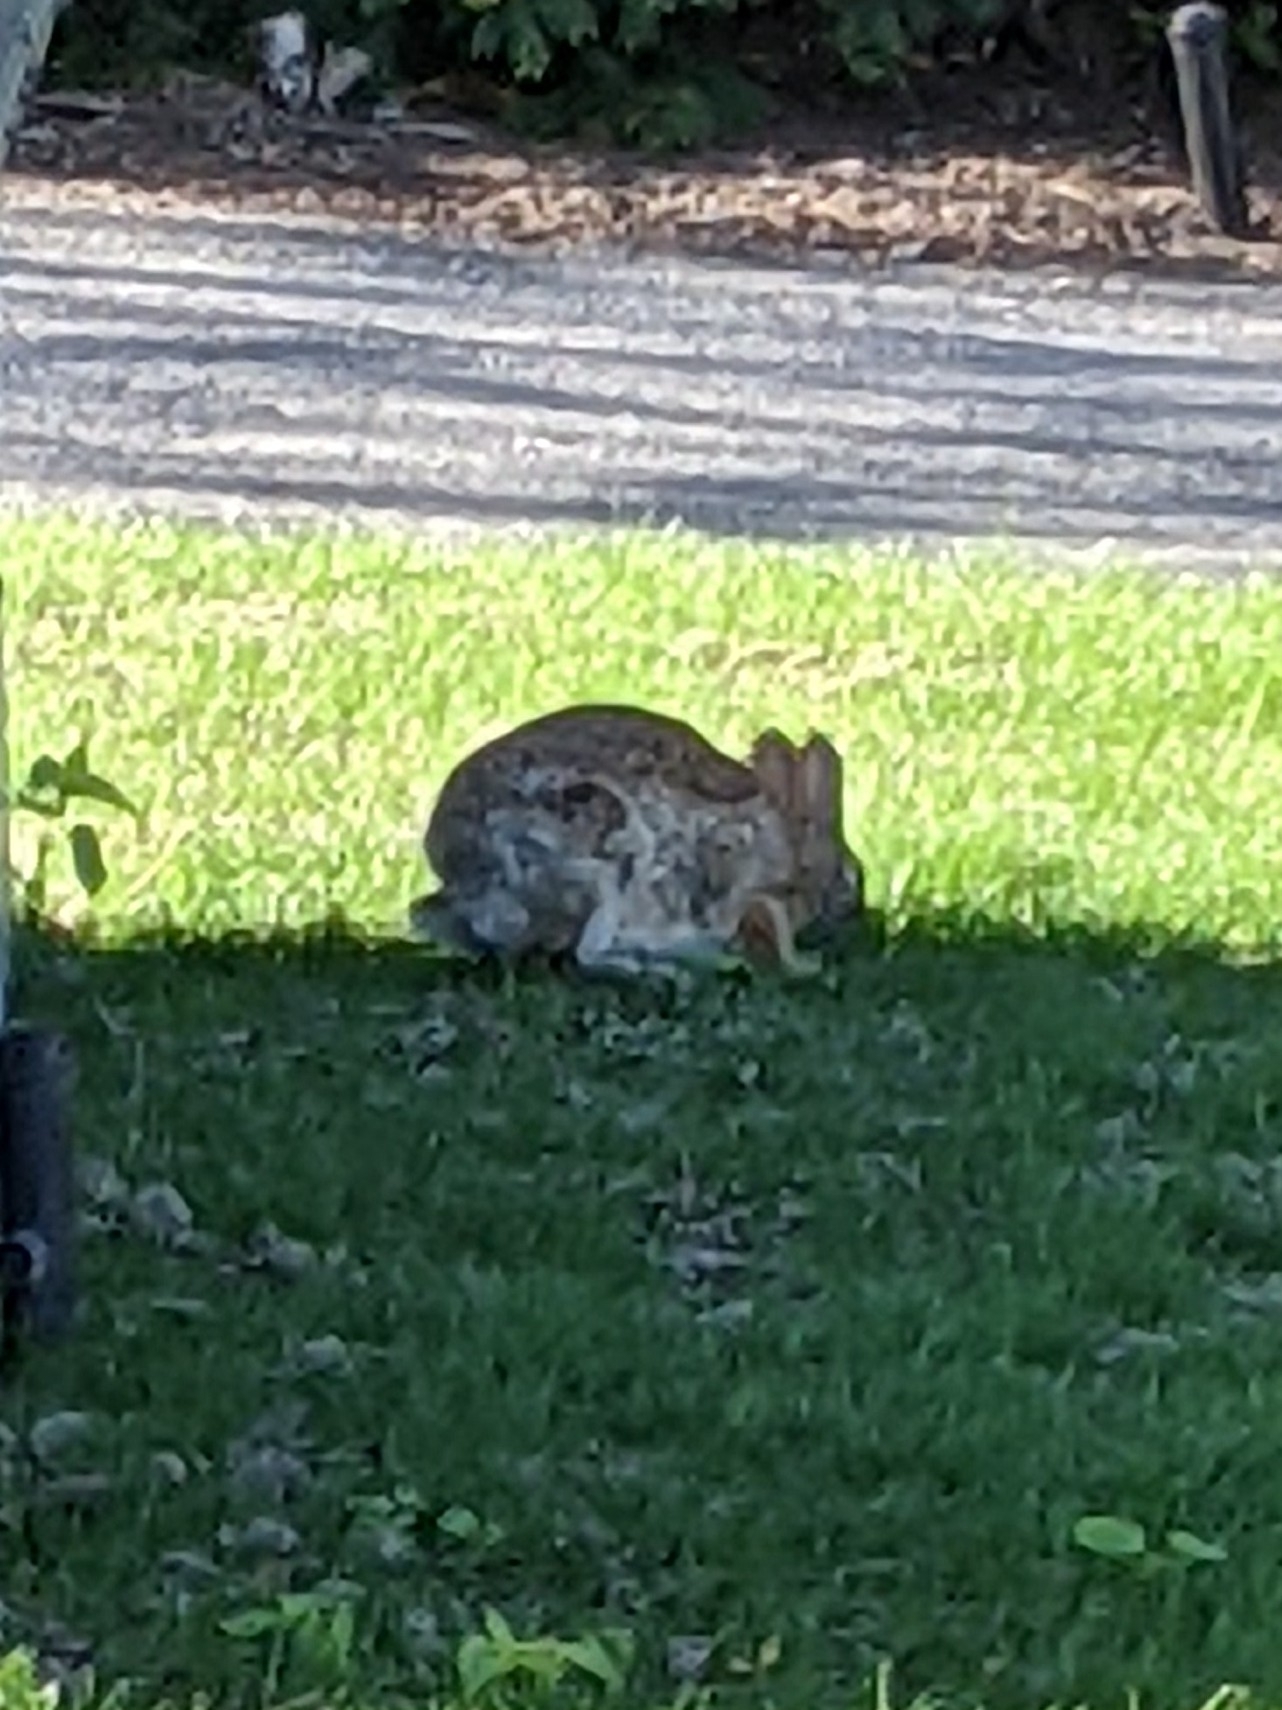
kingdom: Animalia
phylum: Chordata
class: Mammalia
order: Lagomorpha
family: Leporidae
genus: Sylvilagus
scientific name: Sylvilagus floridanus
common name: Eastern cottontail
